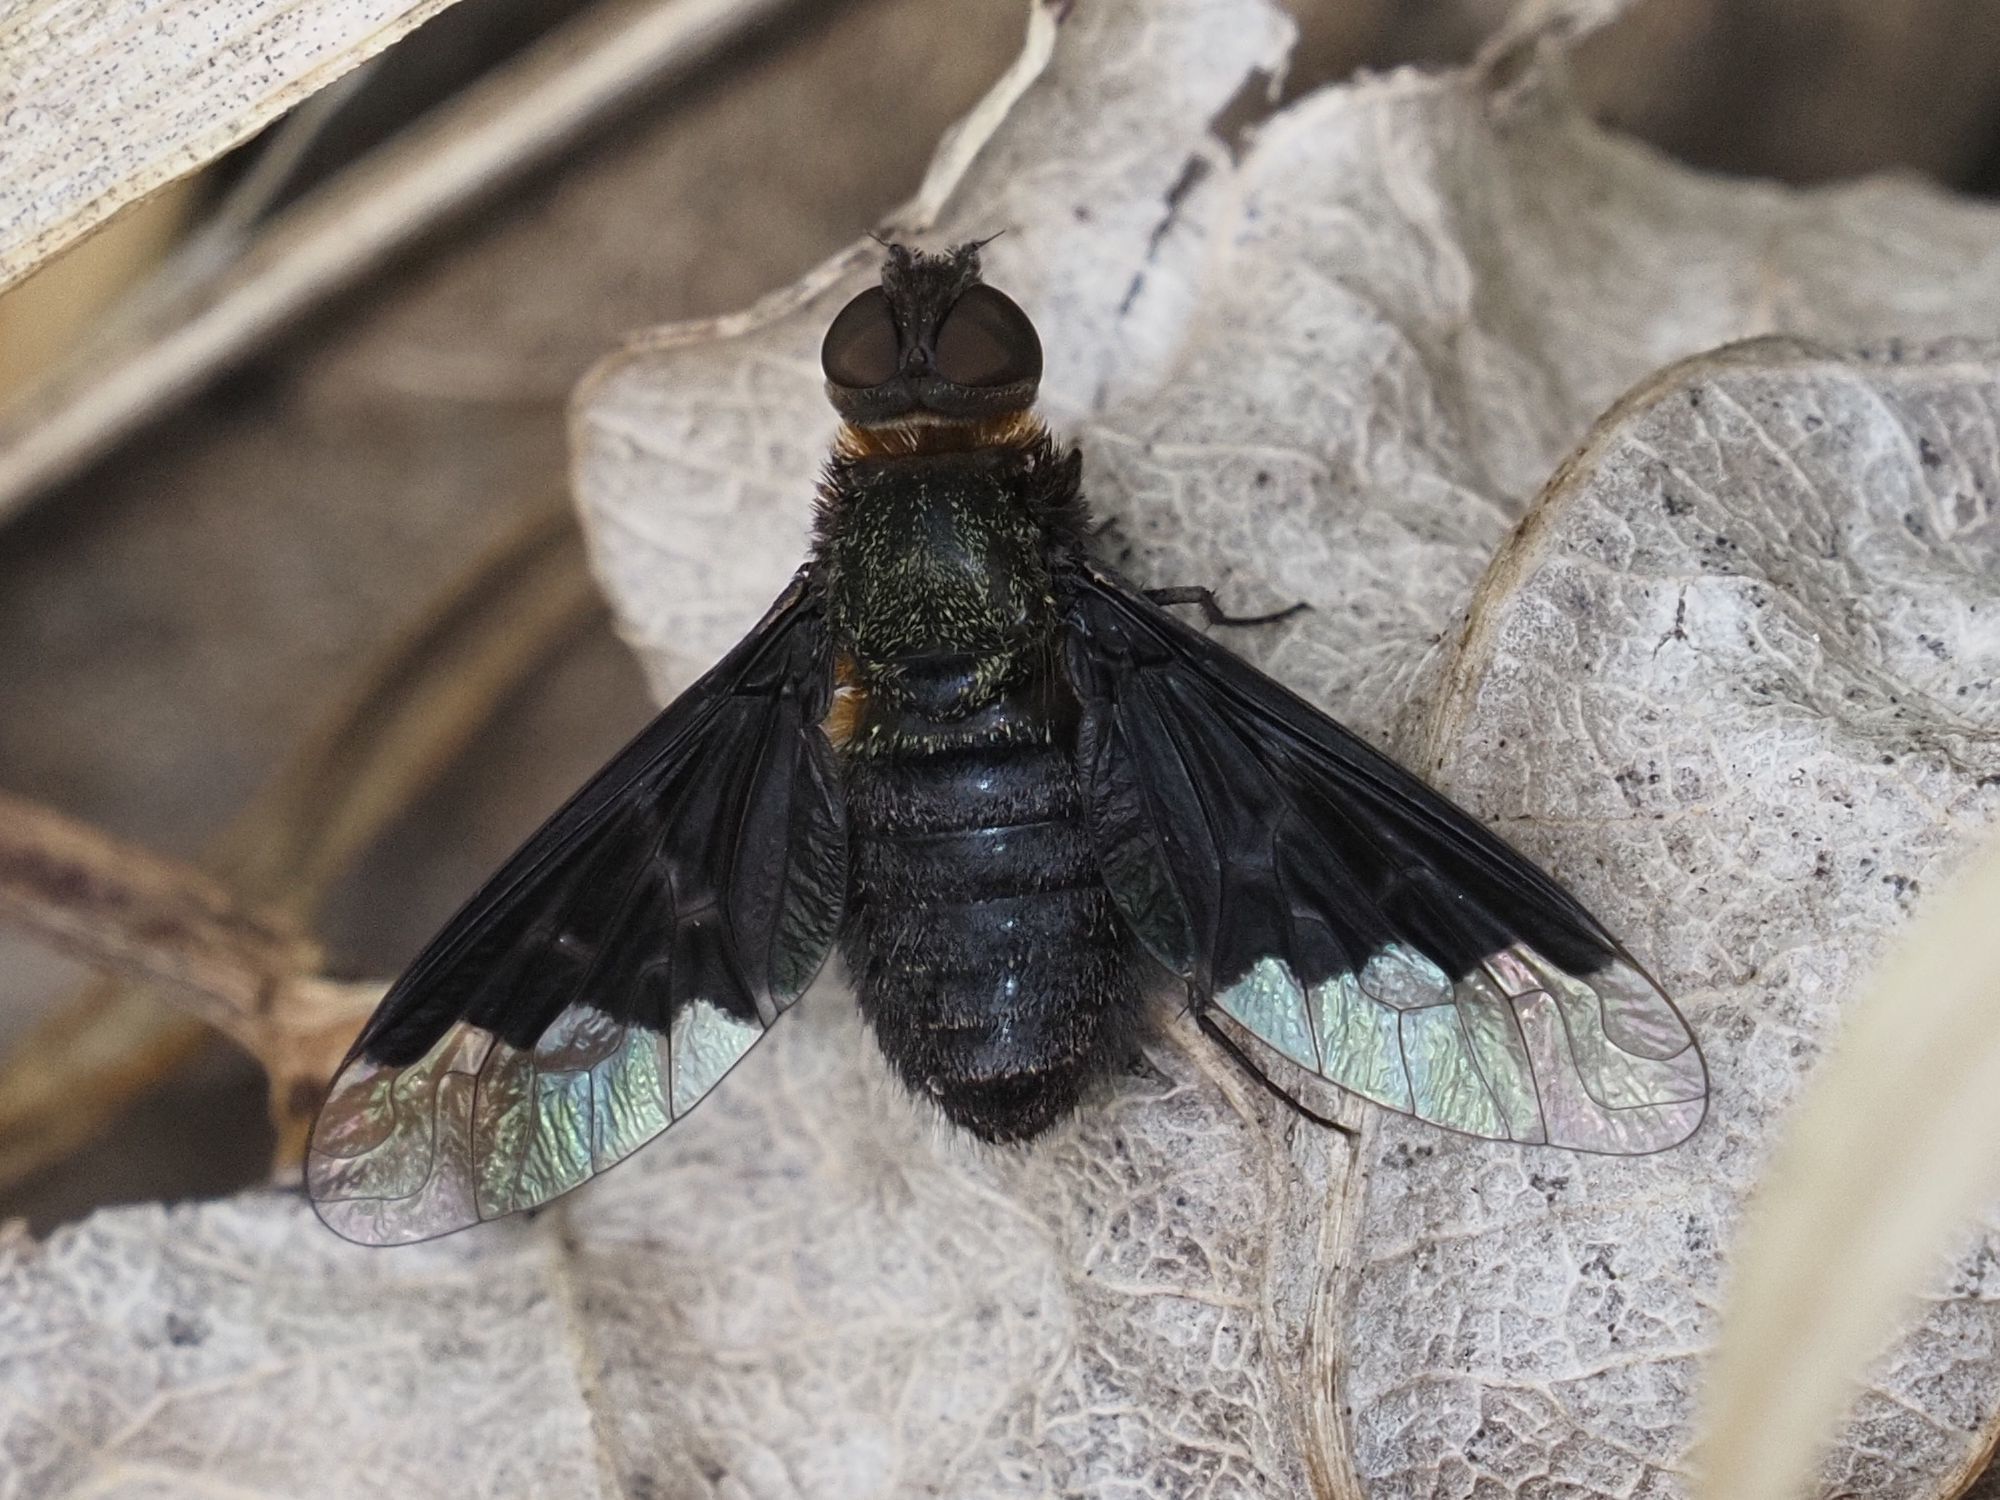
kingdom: Animalia
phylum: Arthropoda
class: Insecta
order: Diptera
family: Bombyliidae
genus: Hemipenthes
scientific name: Hemipenthes morio
